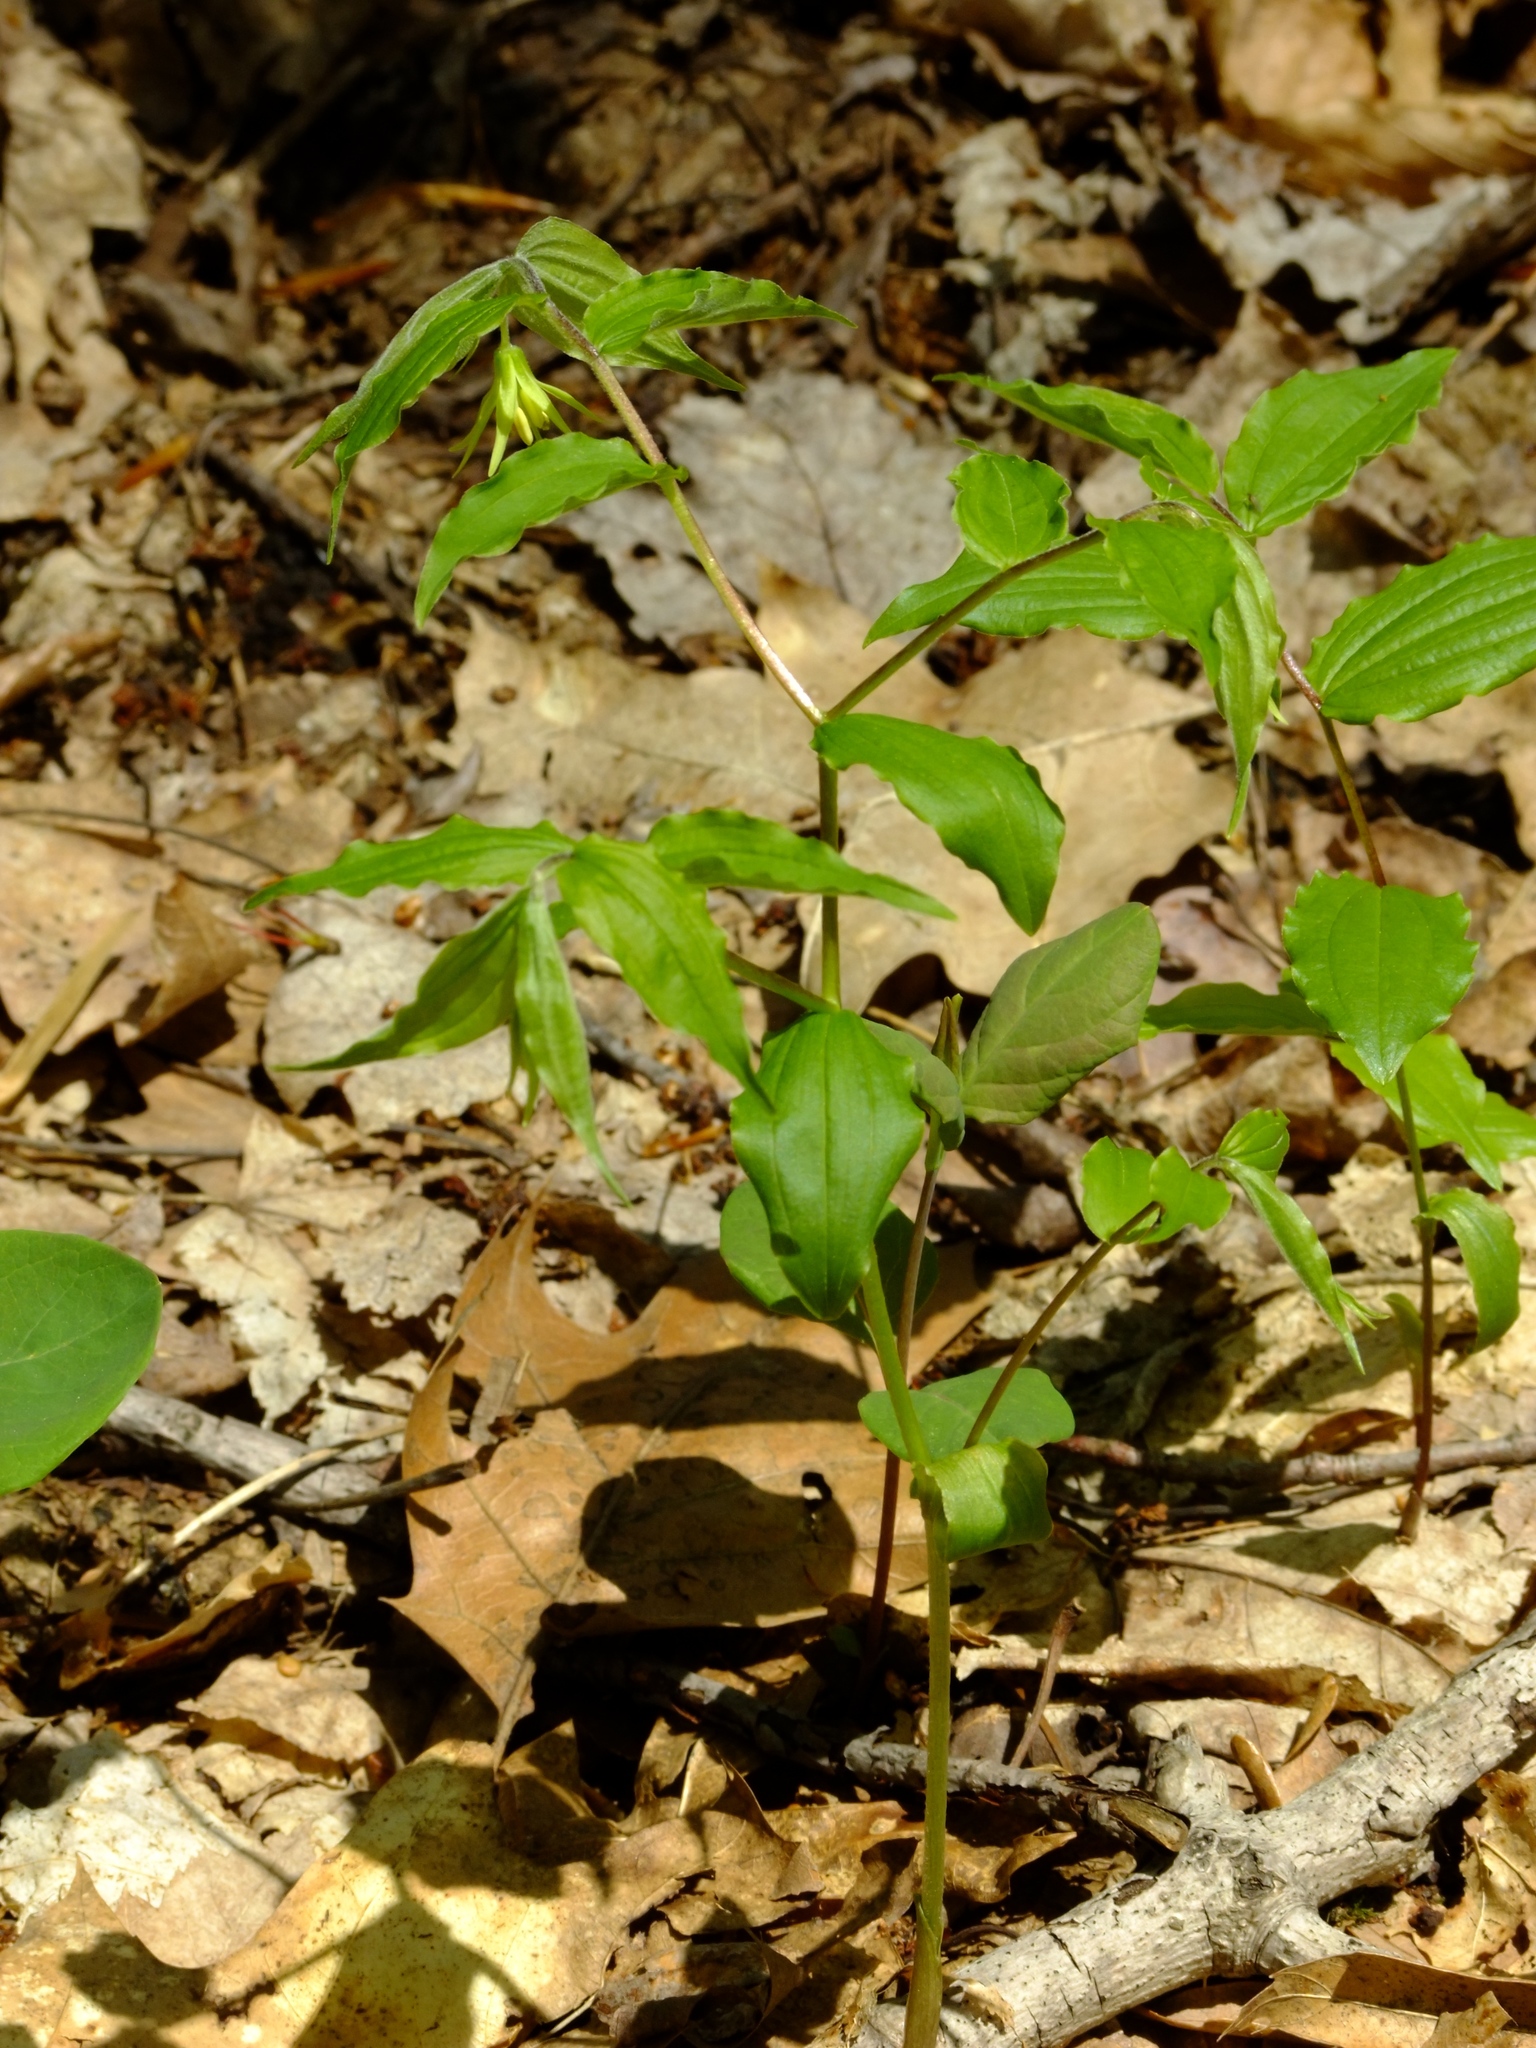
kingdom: Plantae
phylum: Tracheophyta
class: Liliopsida
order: Liliales
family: Liliaceae
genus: Prosartes
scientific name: Prosartes lanuginosa
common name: Hairy mandarin
